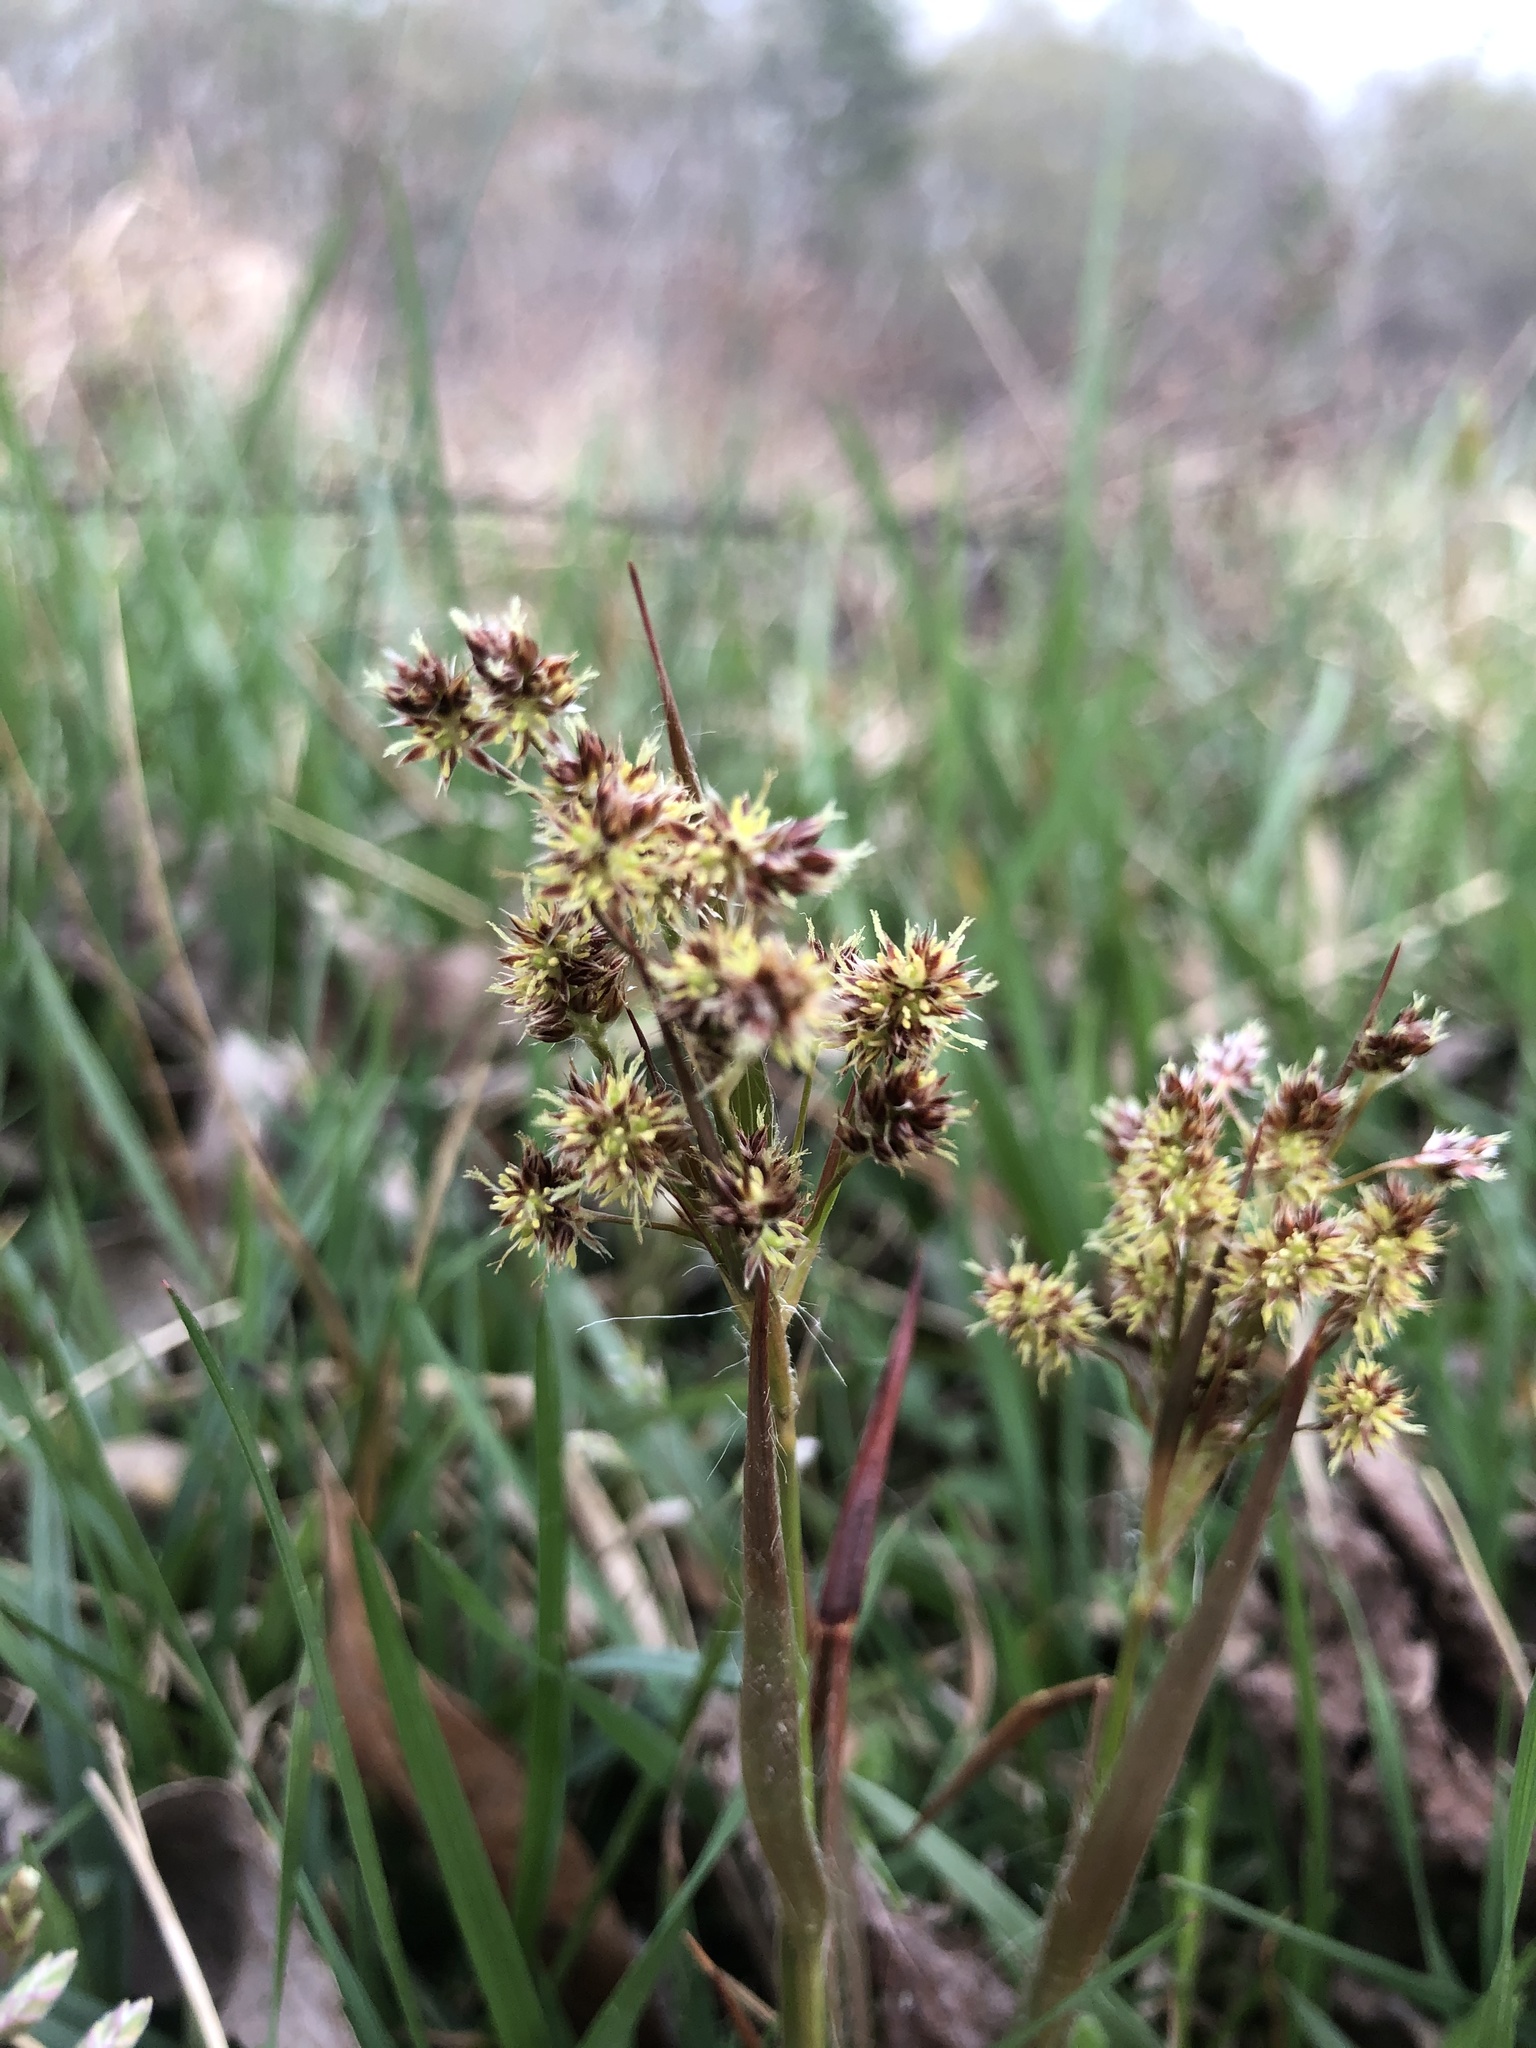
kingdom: Plantae
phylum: Tracheophyta
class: Liliopsida
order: Poales
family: Juncaceae
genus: Luzula
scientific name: Luzula bulbosa
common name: Bulbous woodrush
